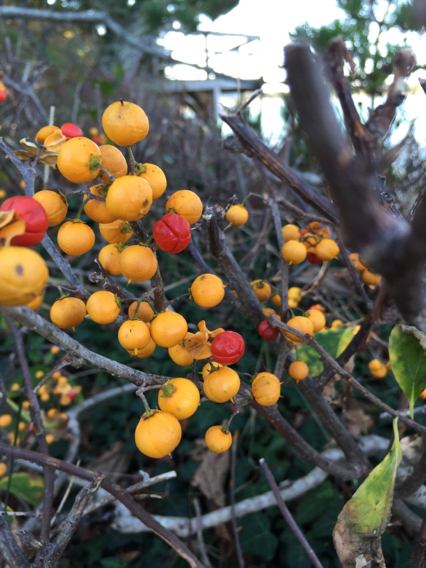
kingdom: Plantae
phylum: Tracheophyta
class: Magnoliopsida
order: Celastrales
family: Celastraceae
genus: Celastrus
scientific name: Celastrus orbiculatus
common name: Oriental bittersweet
